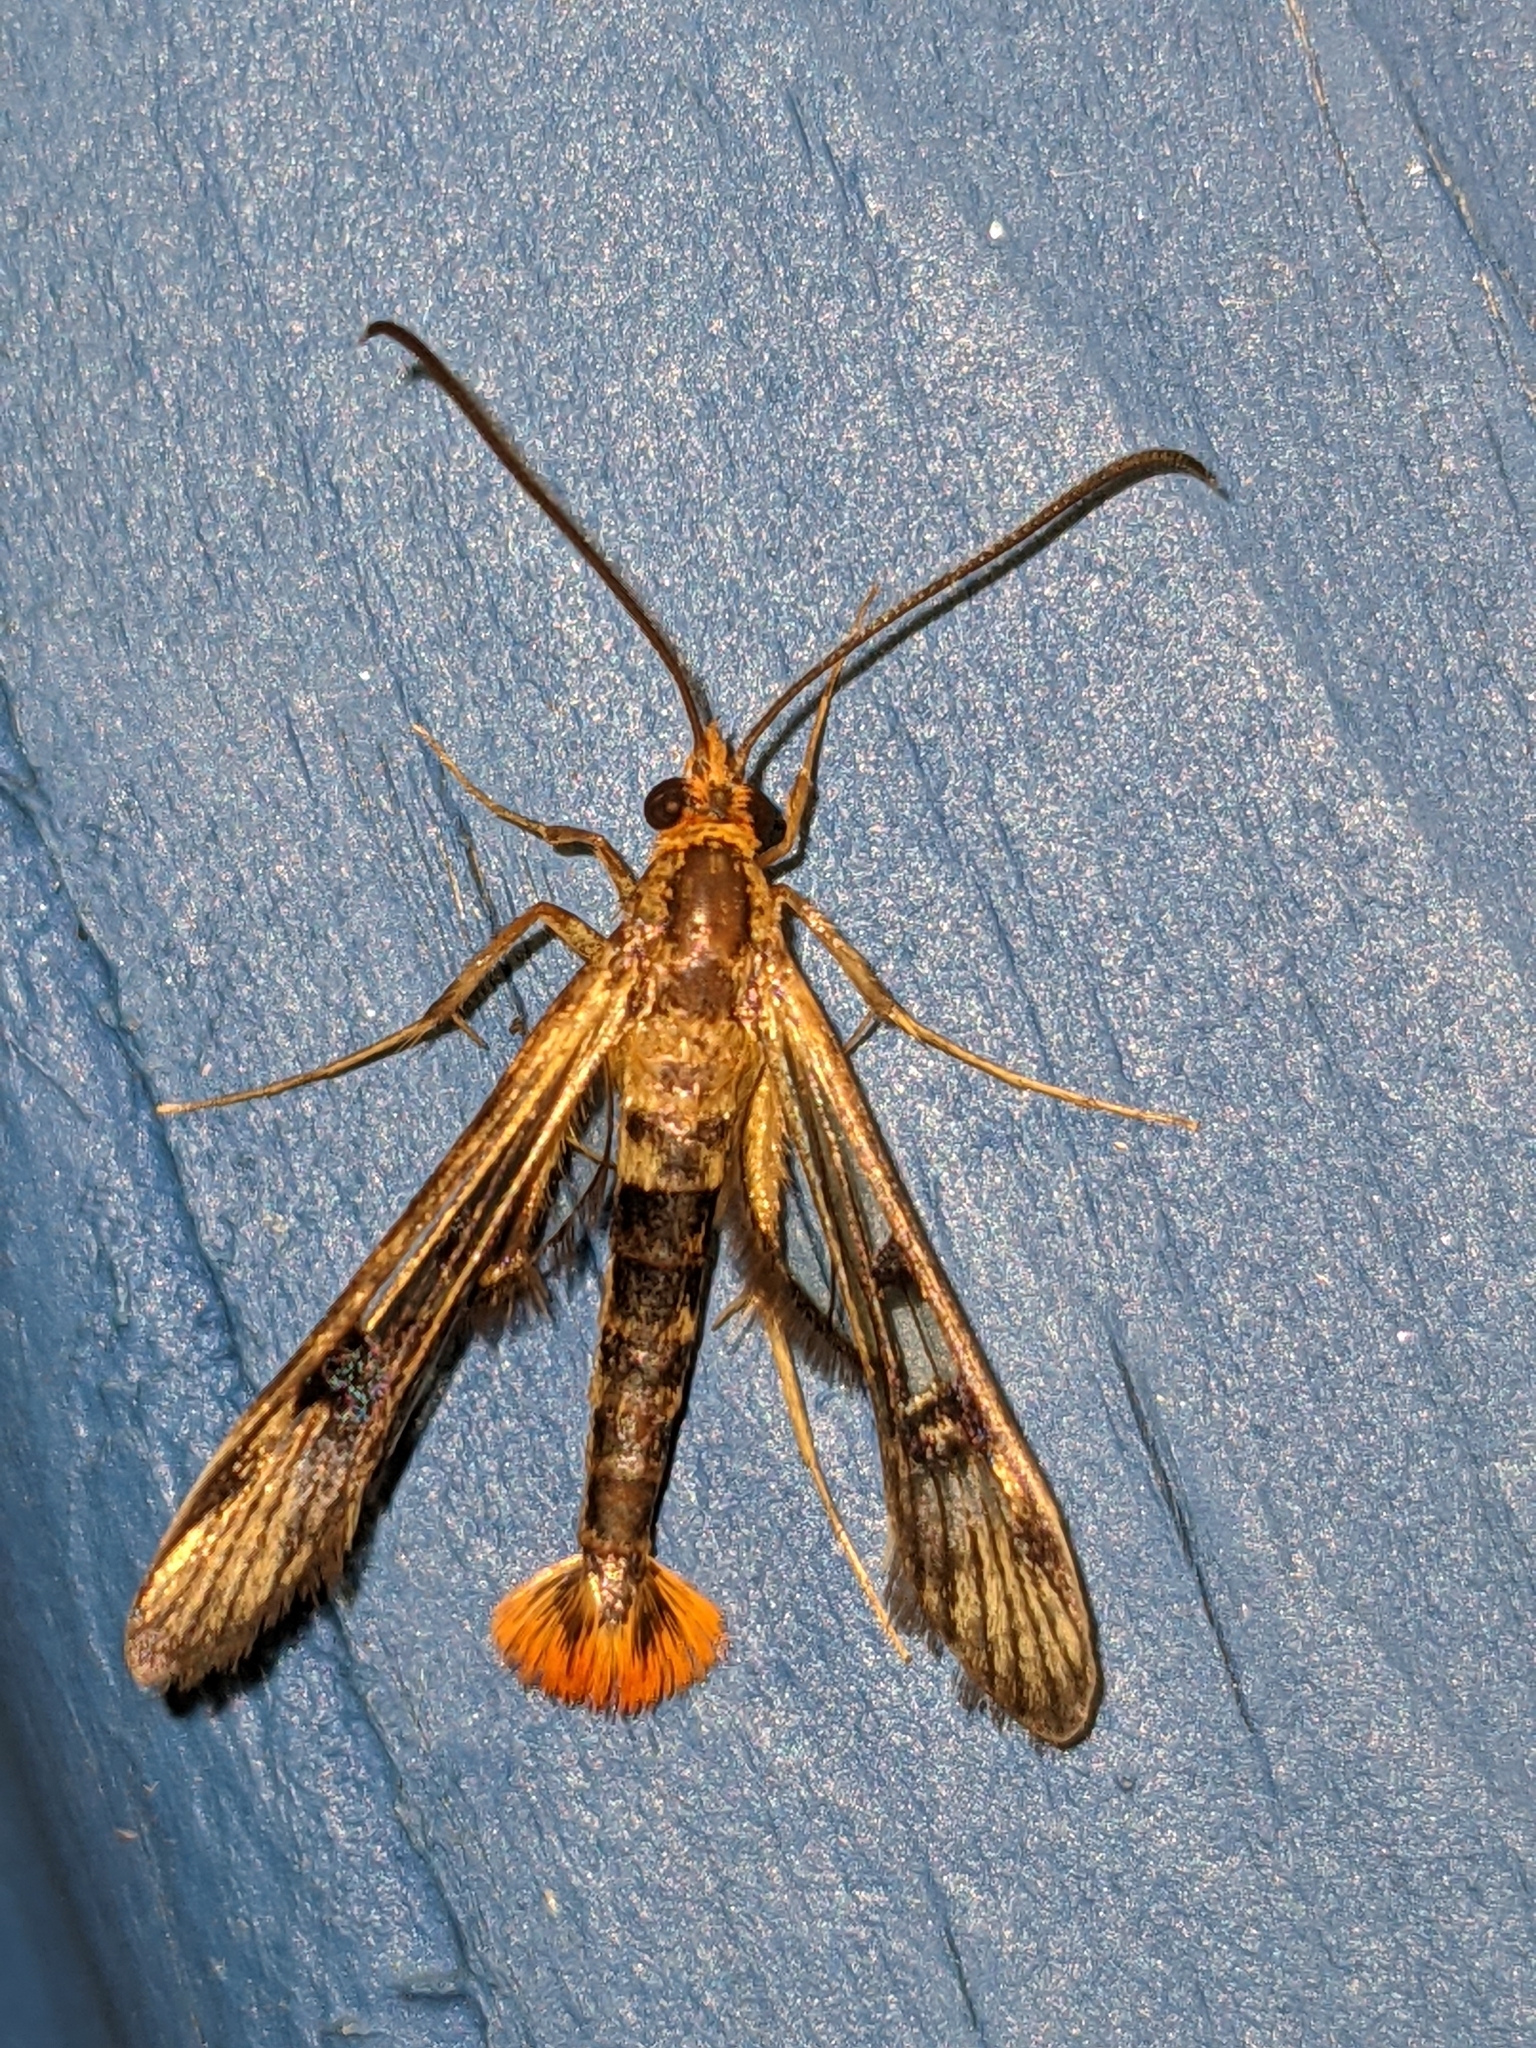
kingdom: Animalia
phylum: Arthropoda
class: Insecta
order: Lepidoptera
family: Sesiidae
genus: Synanthedon
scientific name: Synanthedon acerni
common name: Maple callus borer moth
